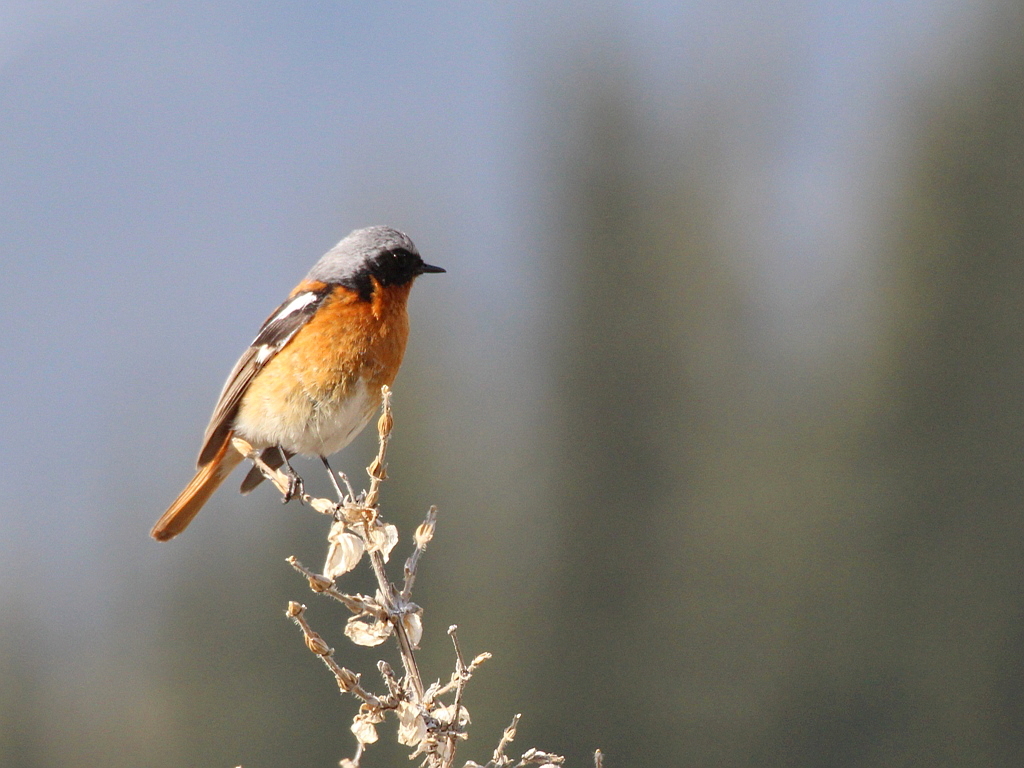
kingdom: Animalia
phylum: Chordata
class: Aves
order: Passeriformes
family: Muscicapidae
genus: Phoenicurus
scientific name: Phoenicurus erythronotus
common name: Eversmann's redstart
